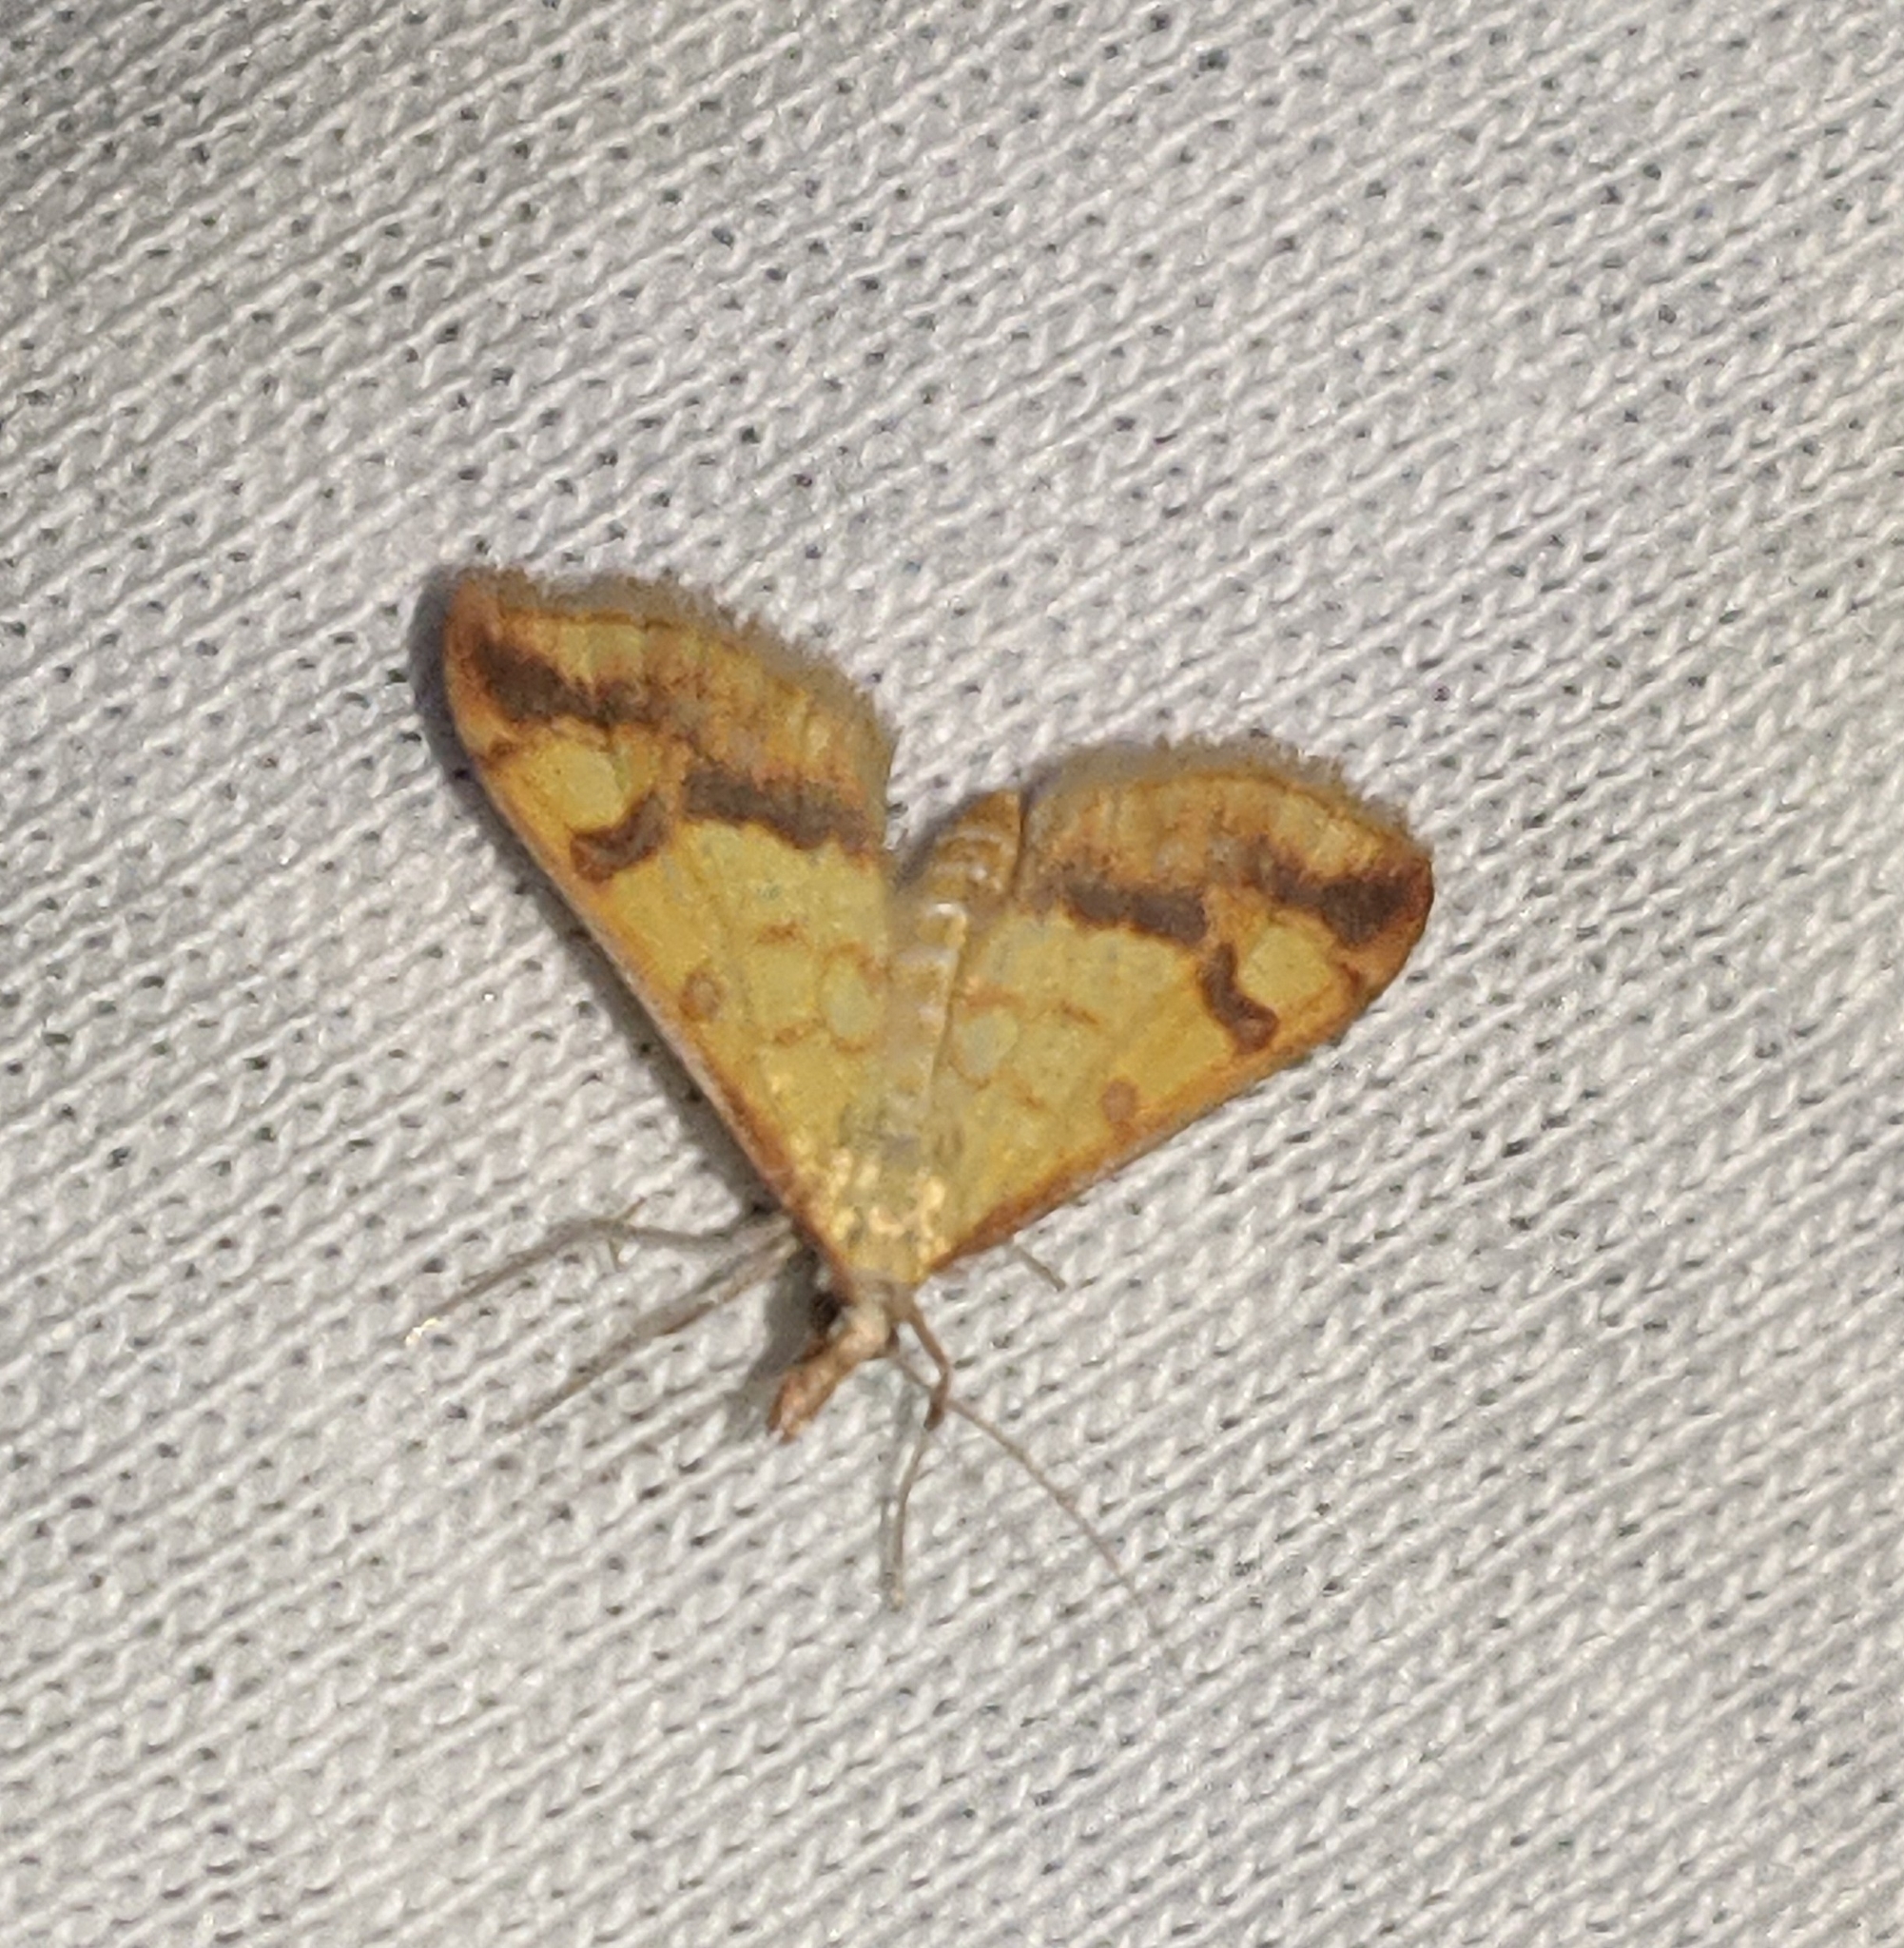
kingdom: Animalia
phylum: Arthropoda
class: Insecta
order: Lepidoptera
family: Crambidae
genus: Choristostigma
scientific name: Choristostigma plumbosignalis
